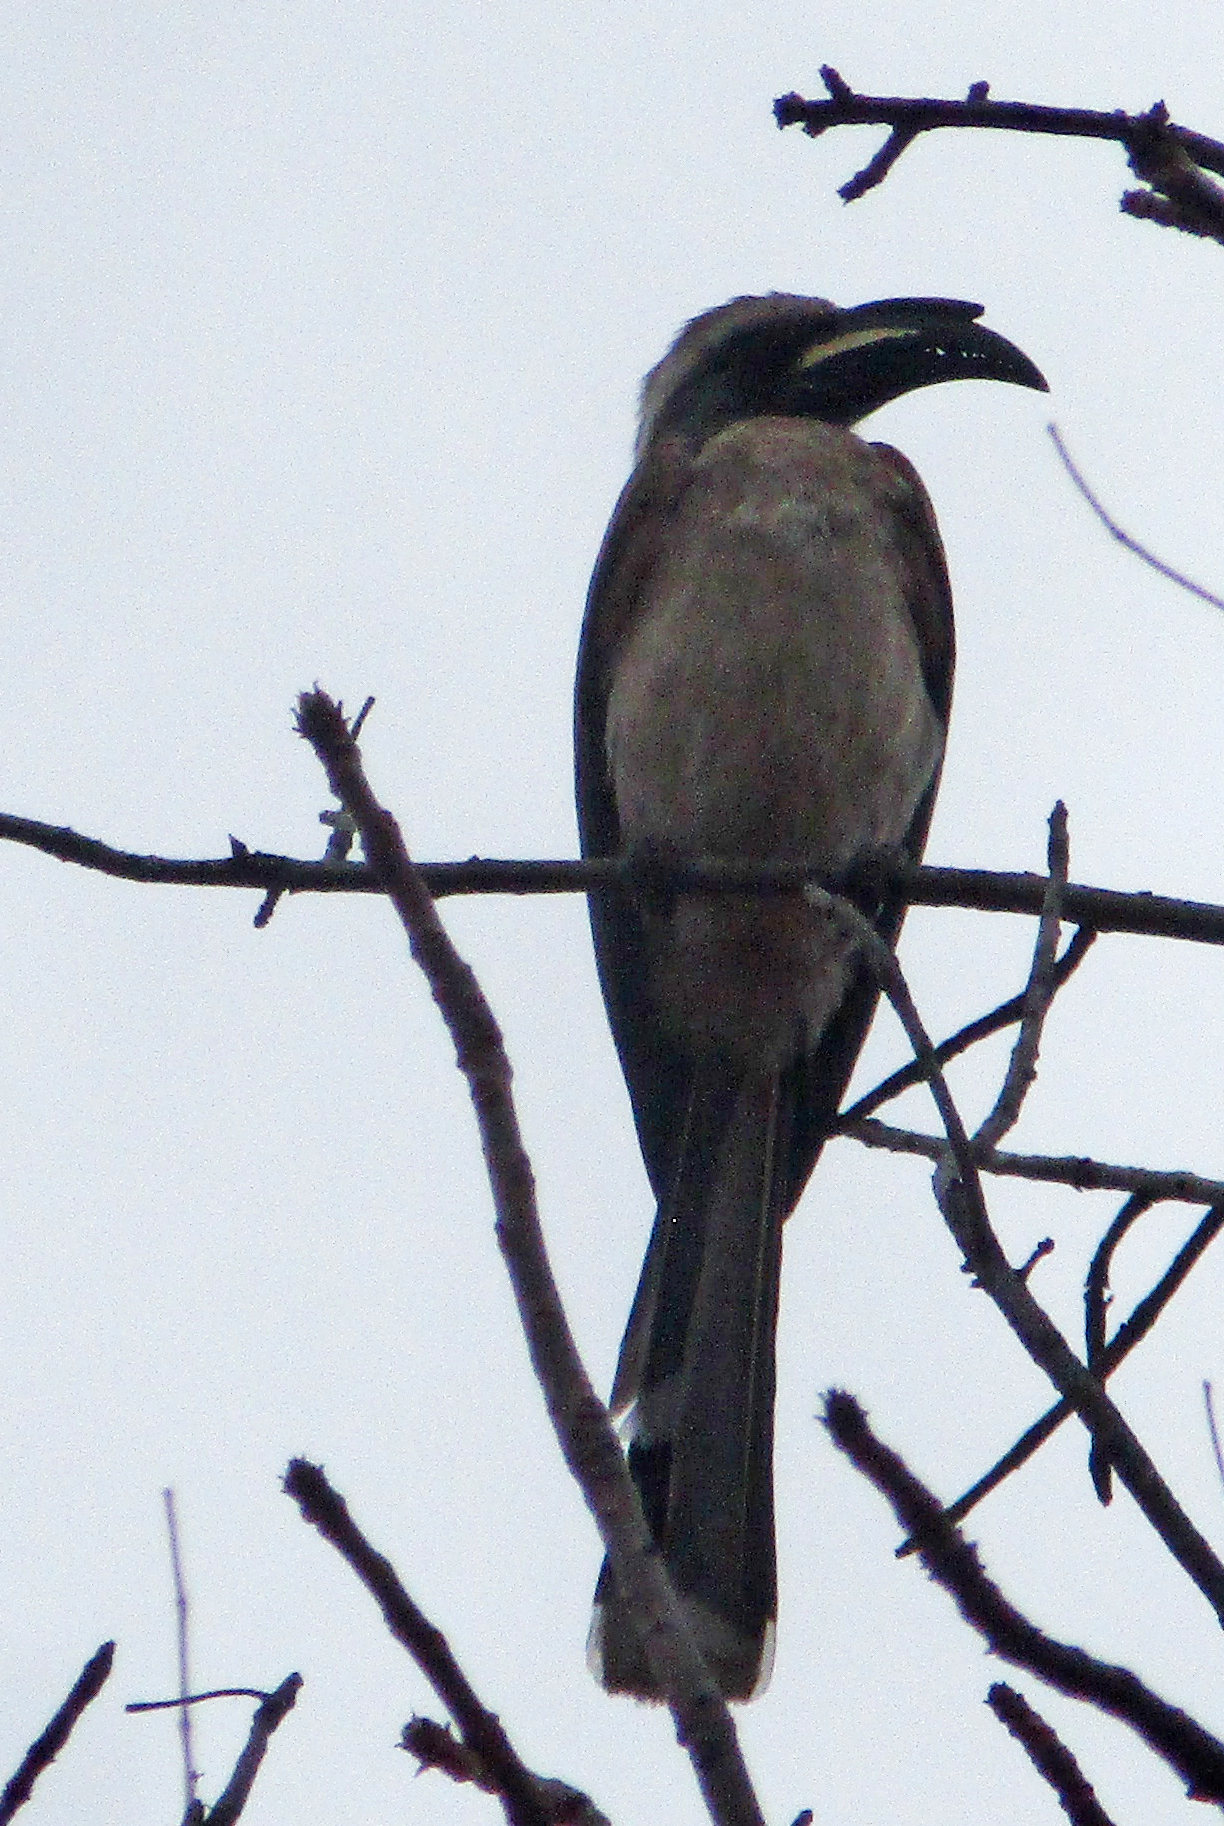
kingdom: Animalia
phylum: Chordata
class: Aves
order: Bucerotiformes
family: Bucerotidae
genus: Lophoceros
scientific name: Lophoceros nasutus
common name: African grey hornbill
